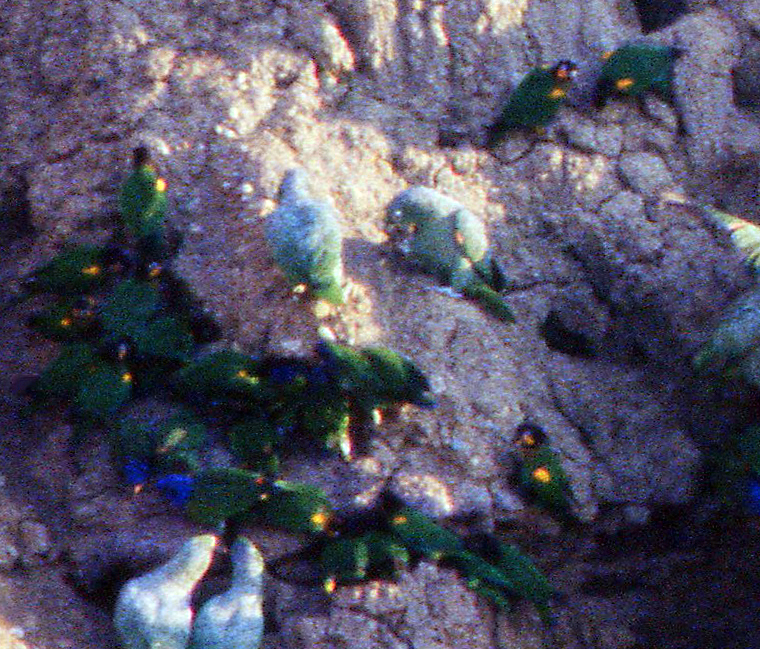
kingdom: Animalia
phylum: Chordata
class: Aves
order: Psittaciformes
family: Psittacidae
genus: Pionopsitta
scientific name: Pionopsitta barrabandi
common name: Orange-cheeked parrot
